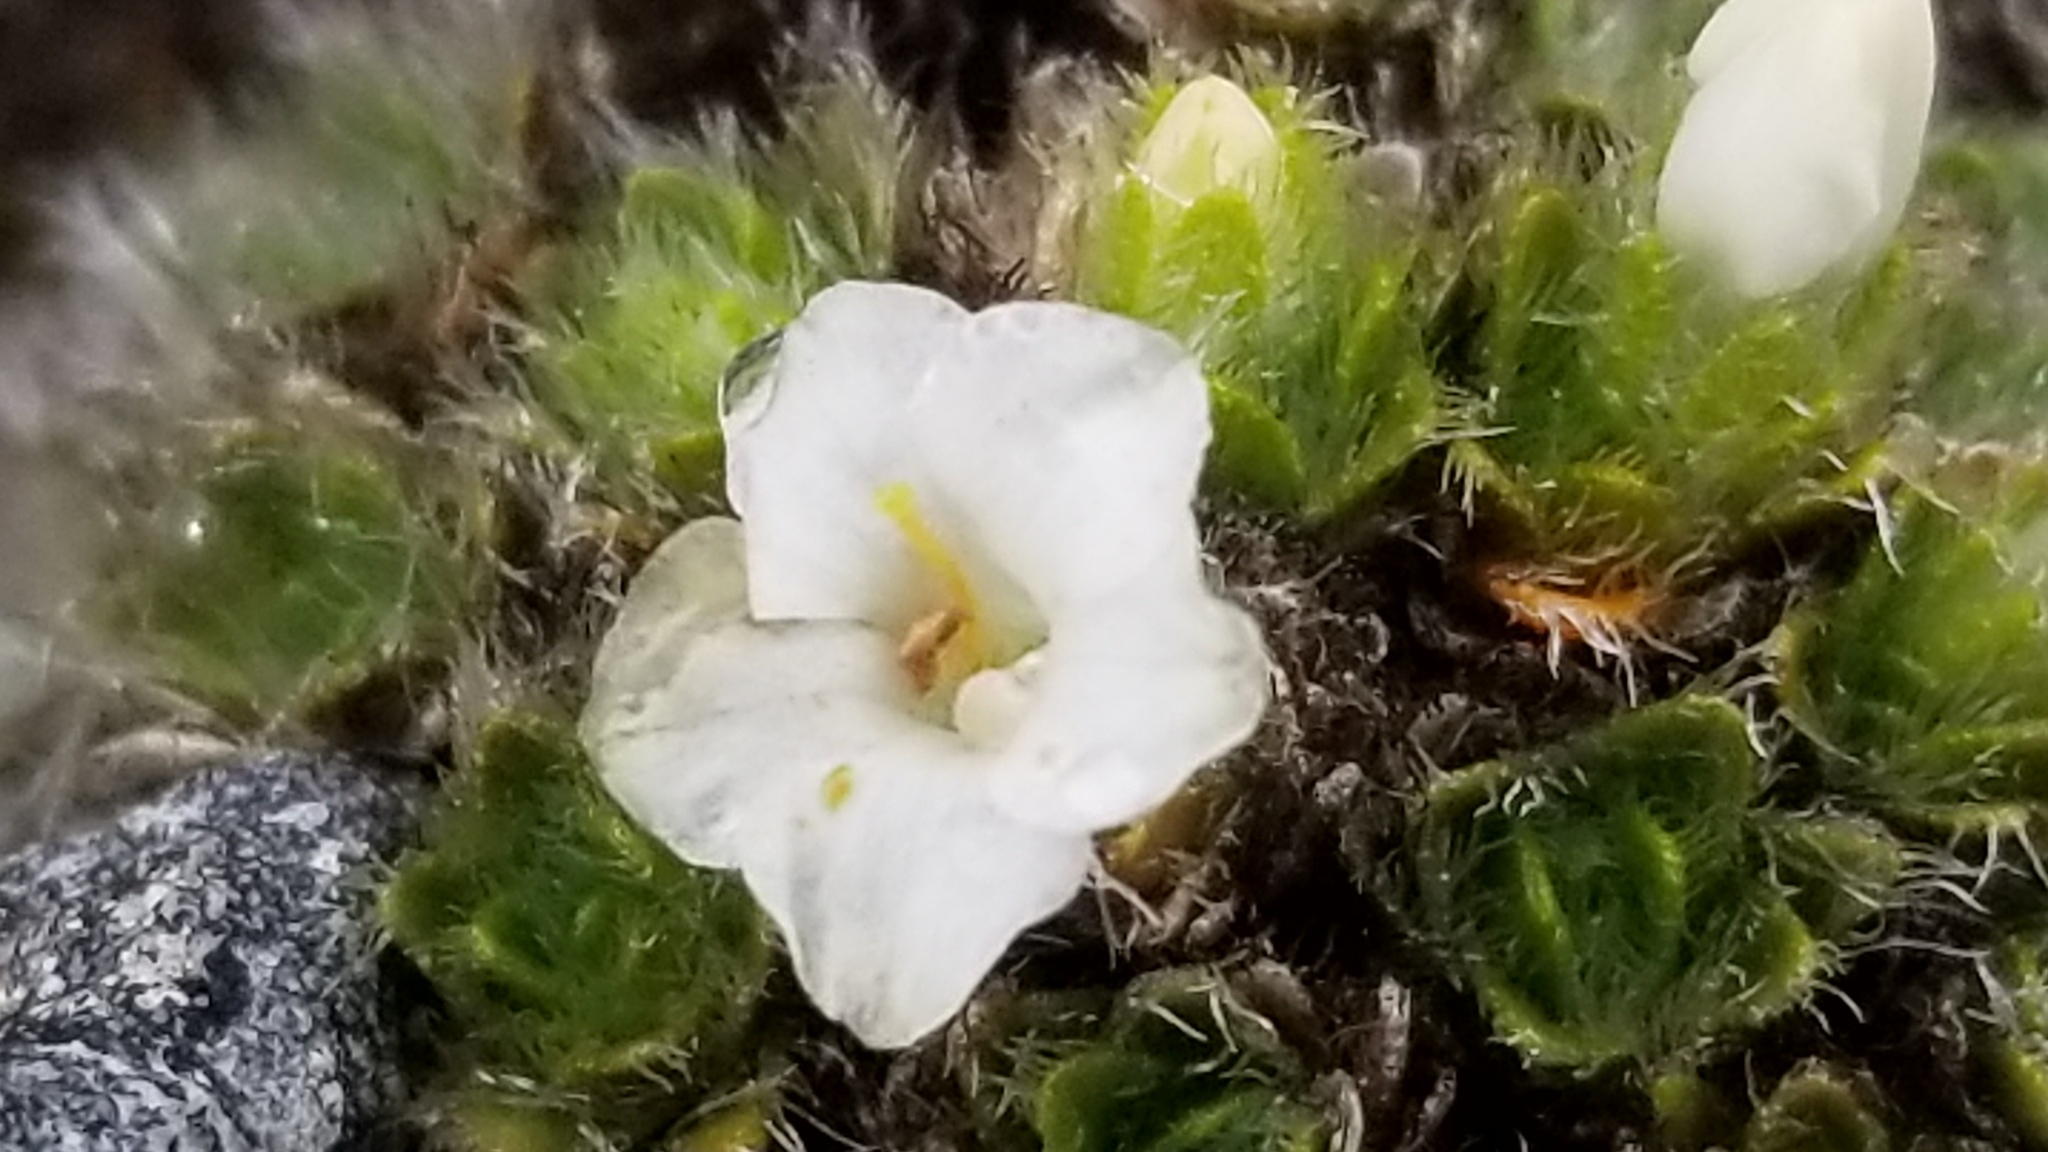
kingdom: Plantae
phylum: Tracheophyta
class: Magnoliopsida
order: Lamiales
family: Plantaginaceae
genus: Veronica
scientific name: Veronica pulvinaris
